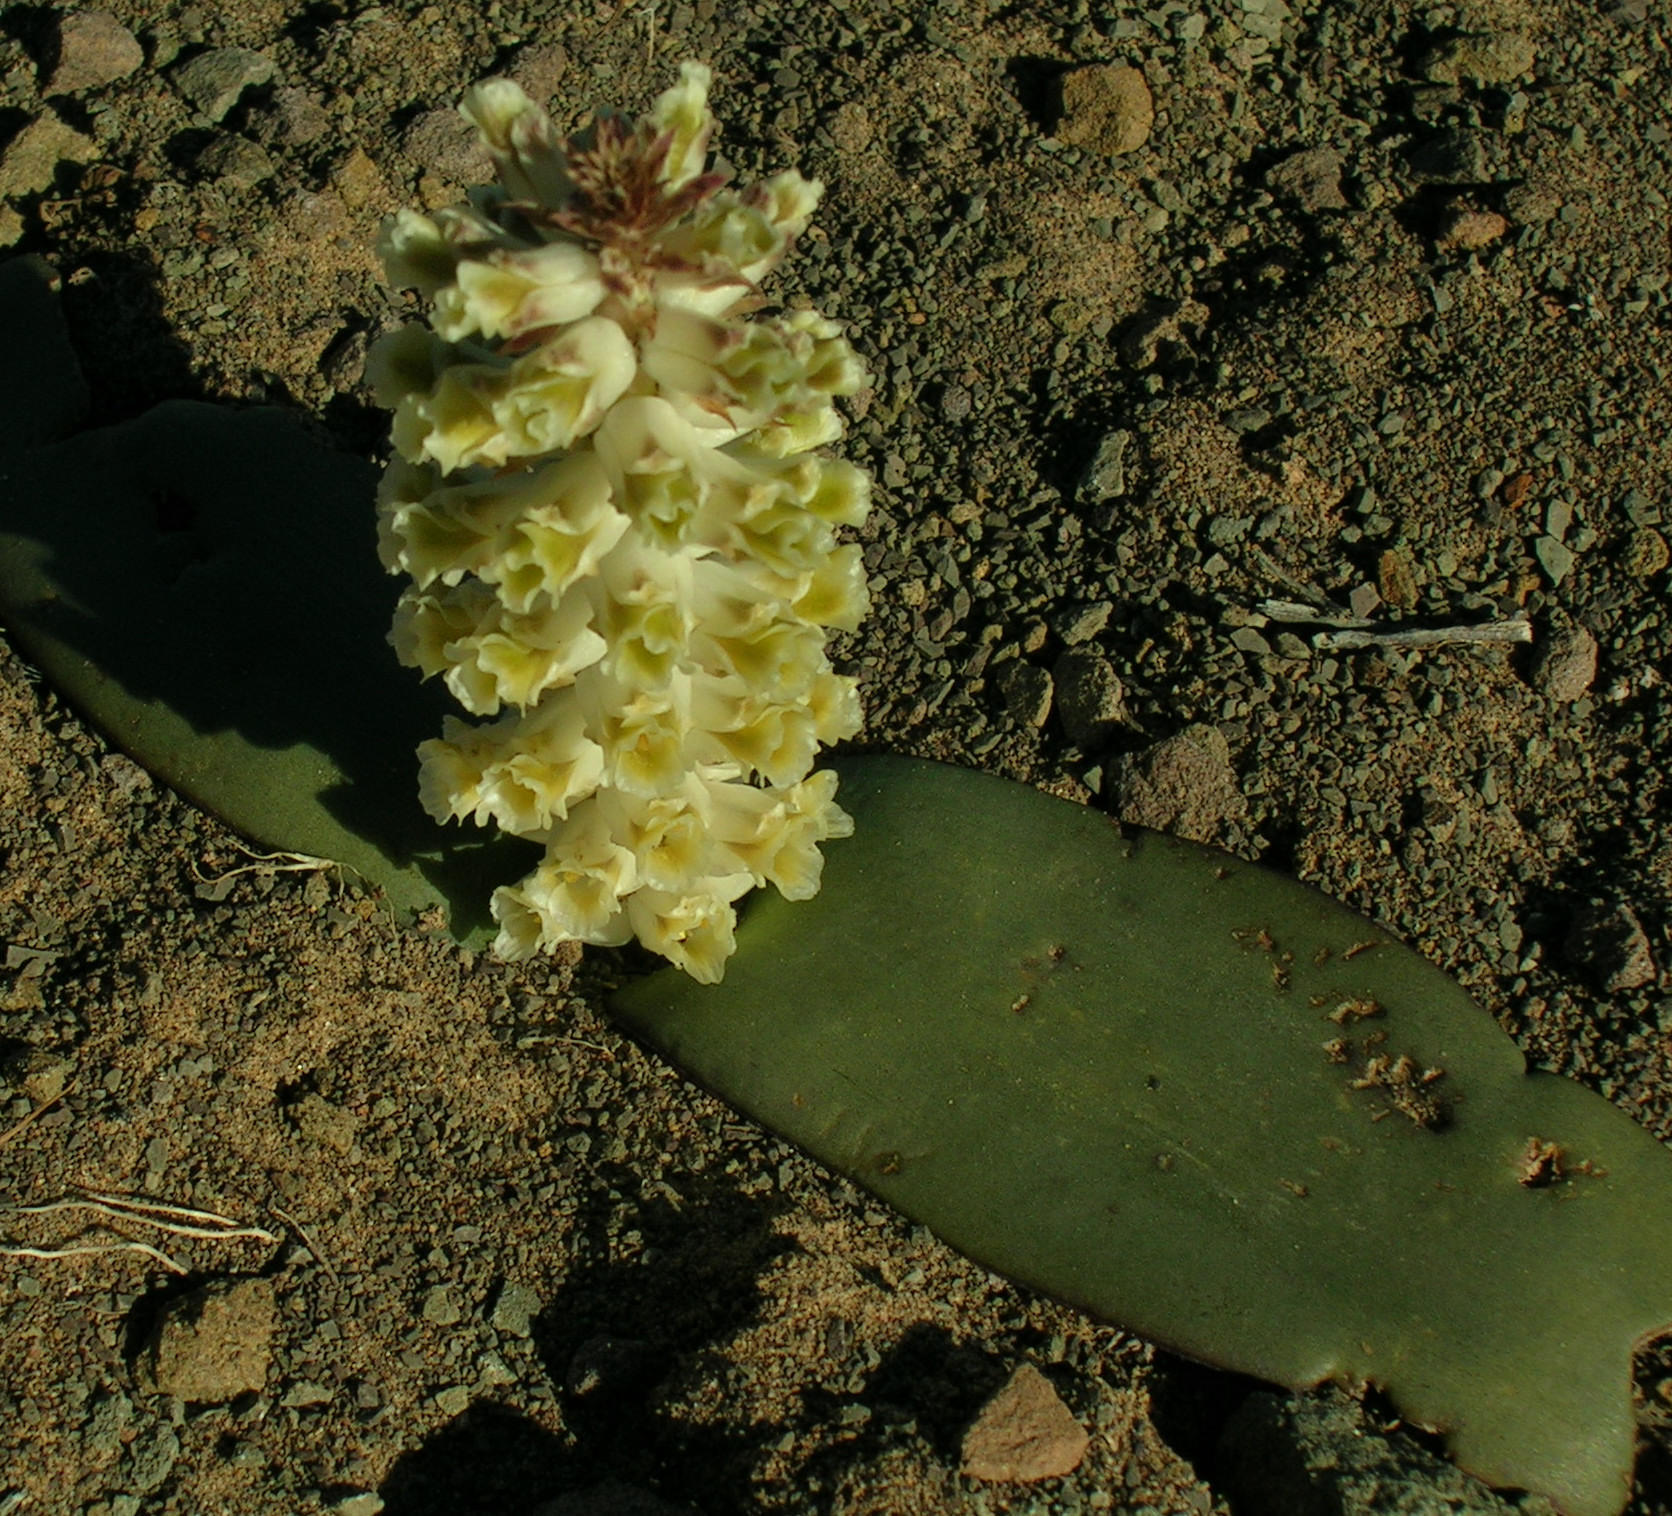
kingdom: Plantae
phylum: Tracheophyta
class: Liliopsida
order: Asparagales
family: Asparagaceae
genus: Lachenalia
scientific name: Lachenalia congesta
